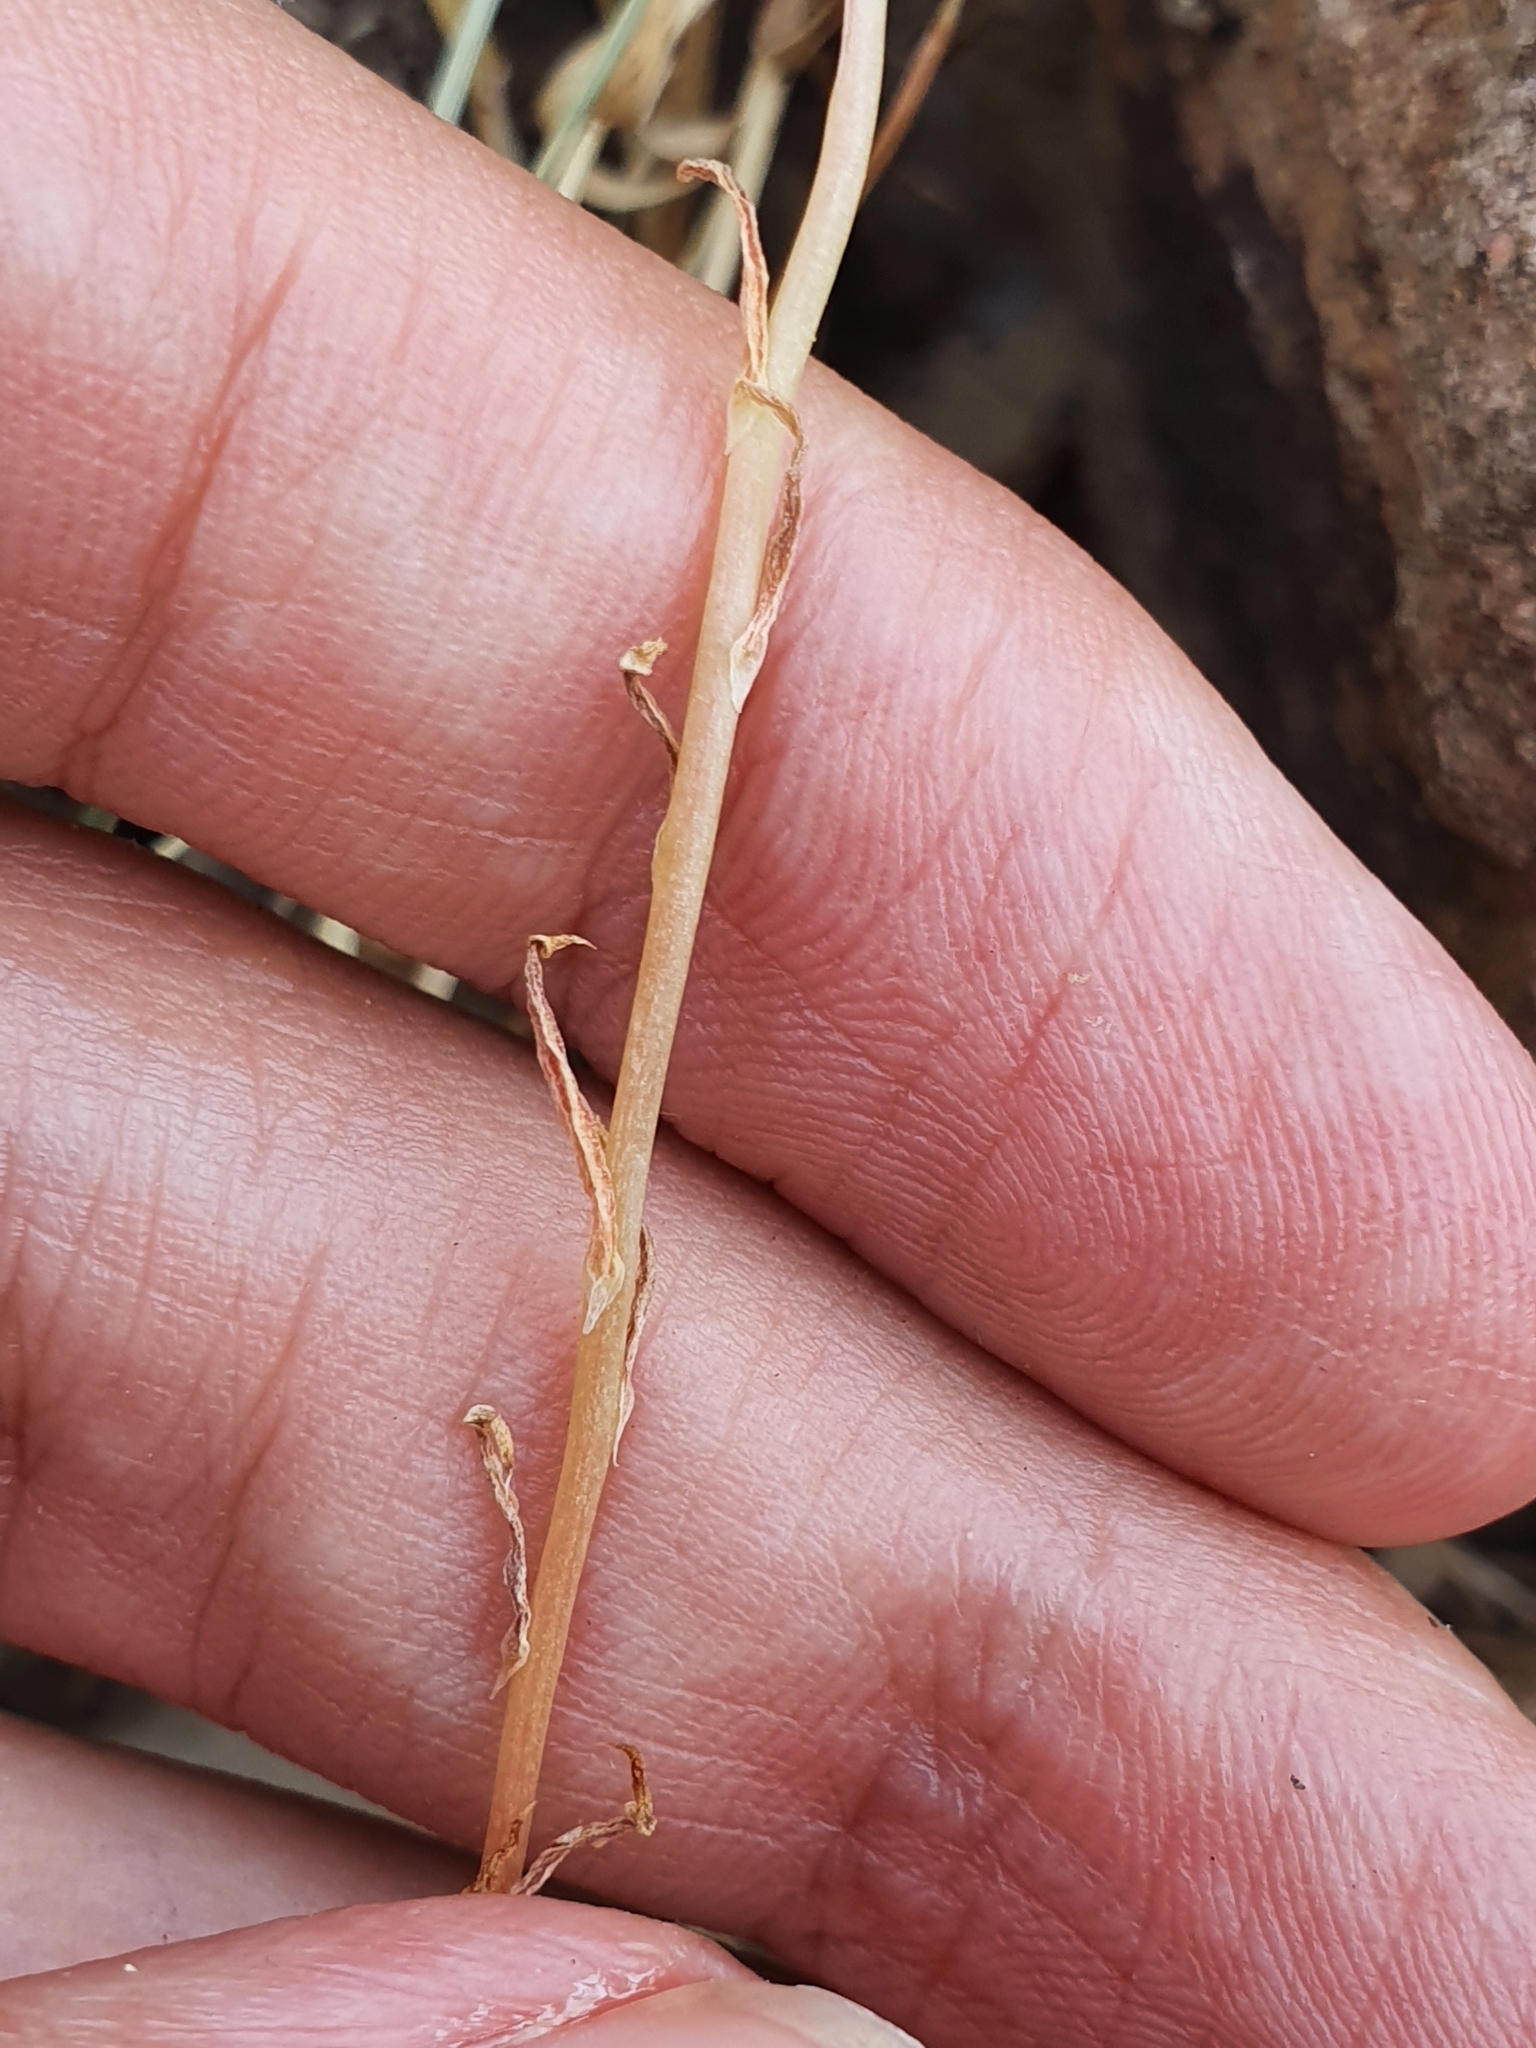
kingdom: Plantae
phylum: Tracheophyta
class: Magnoliopsida
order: Saxifragales
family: Crassulaceae
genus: Petrosedum
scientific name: Petrosedum amplexicaule
